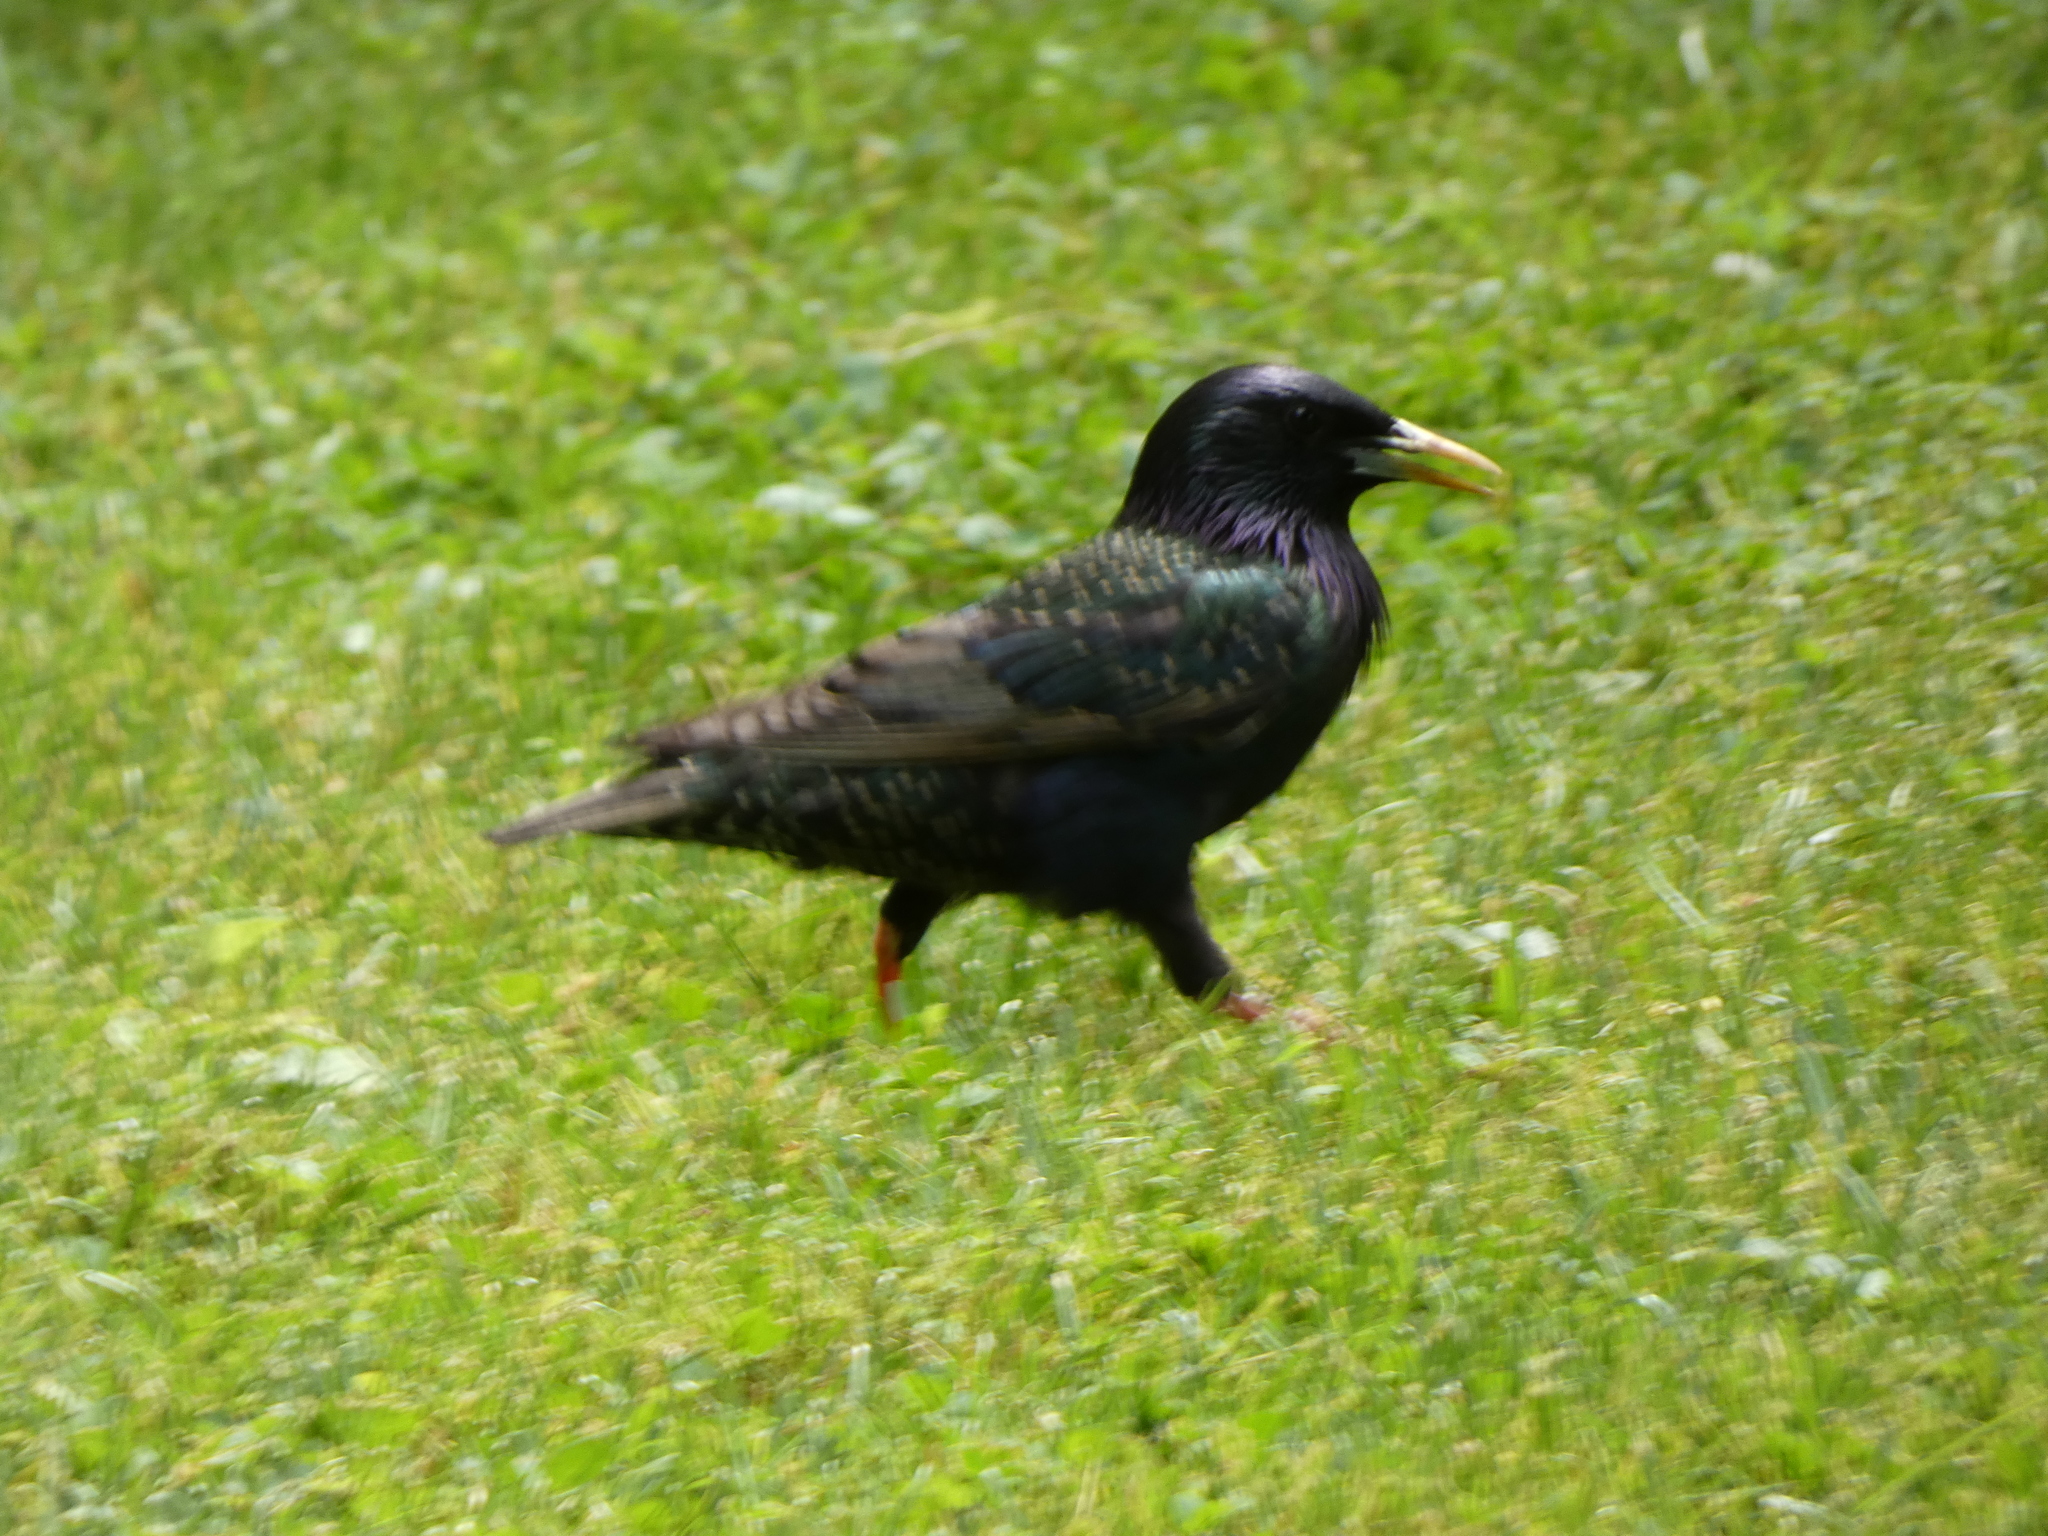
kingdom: Animalia
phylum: Chordata
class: Aves
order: Passeriformes
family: Sturnidae
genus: Sturnus
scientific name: Sturnus vulgaris
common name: Common starling
